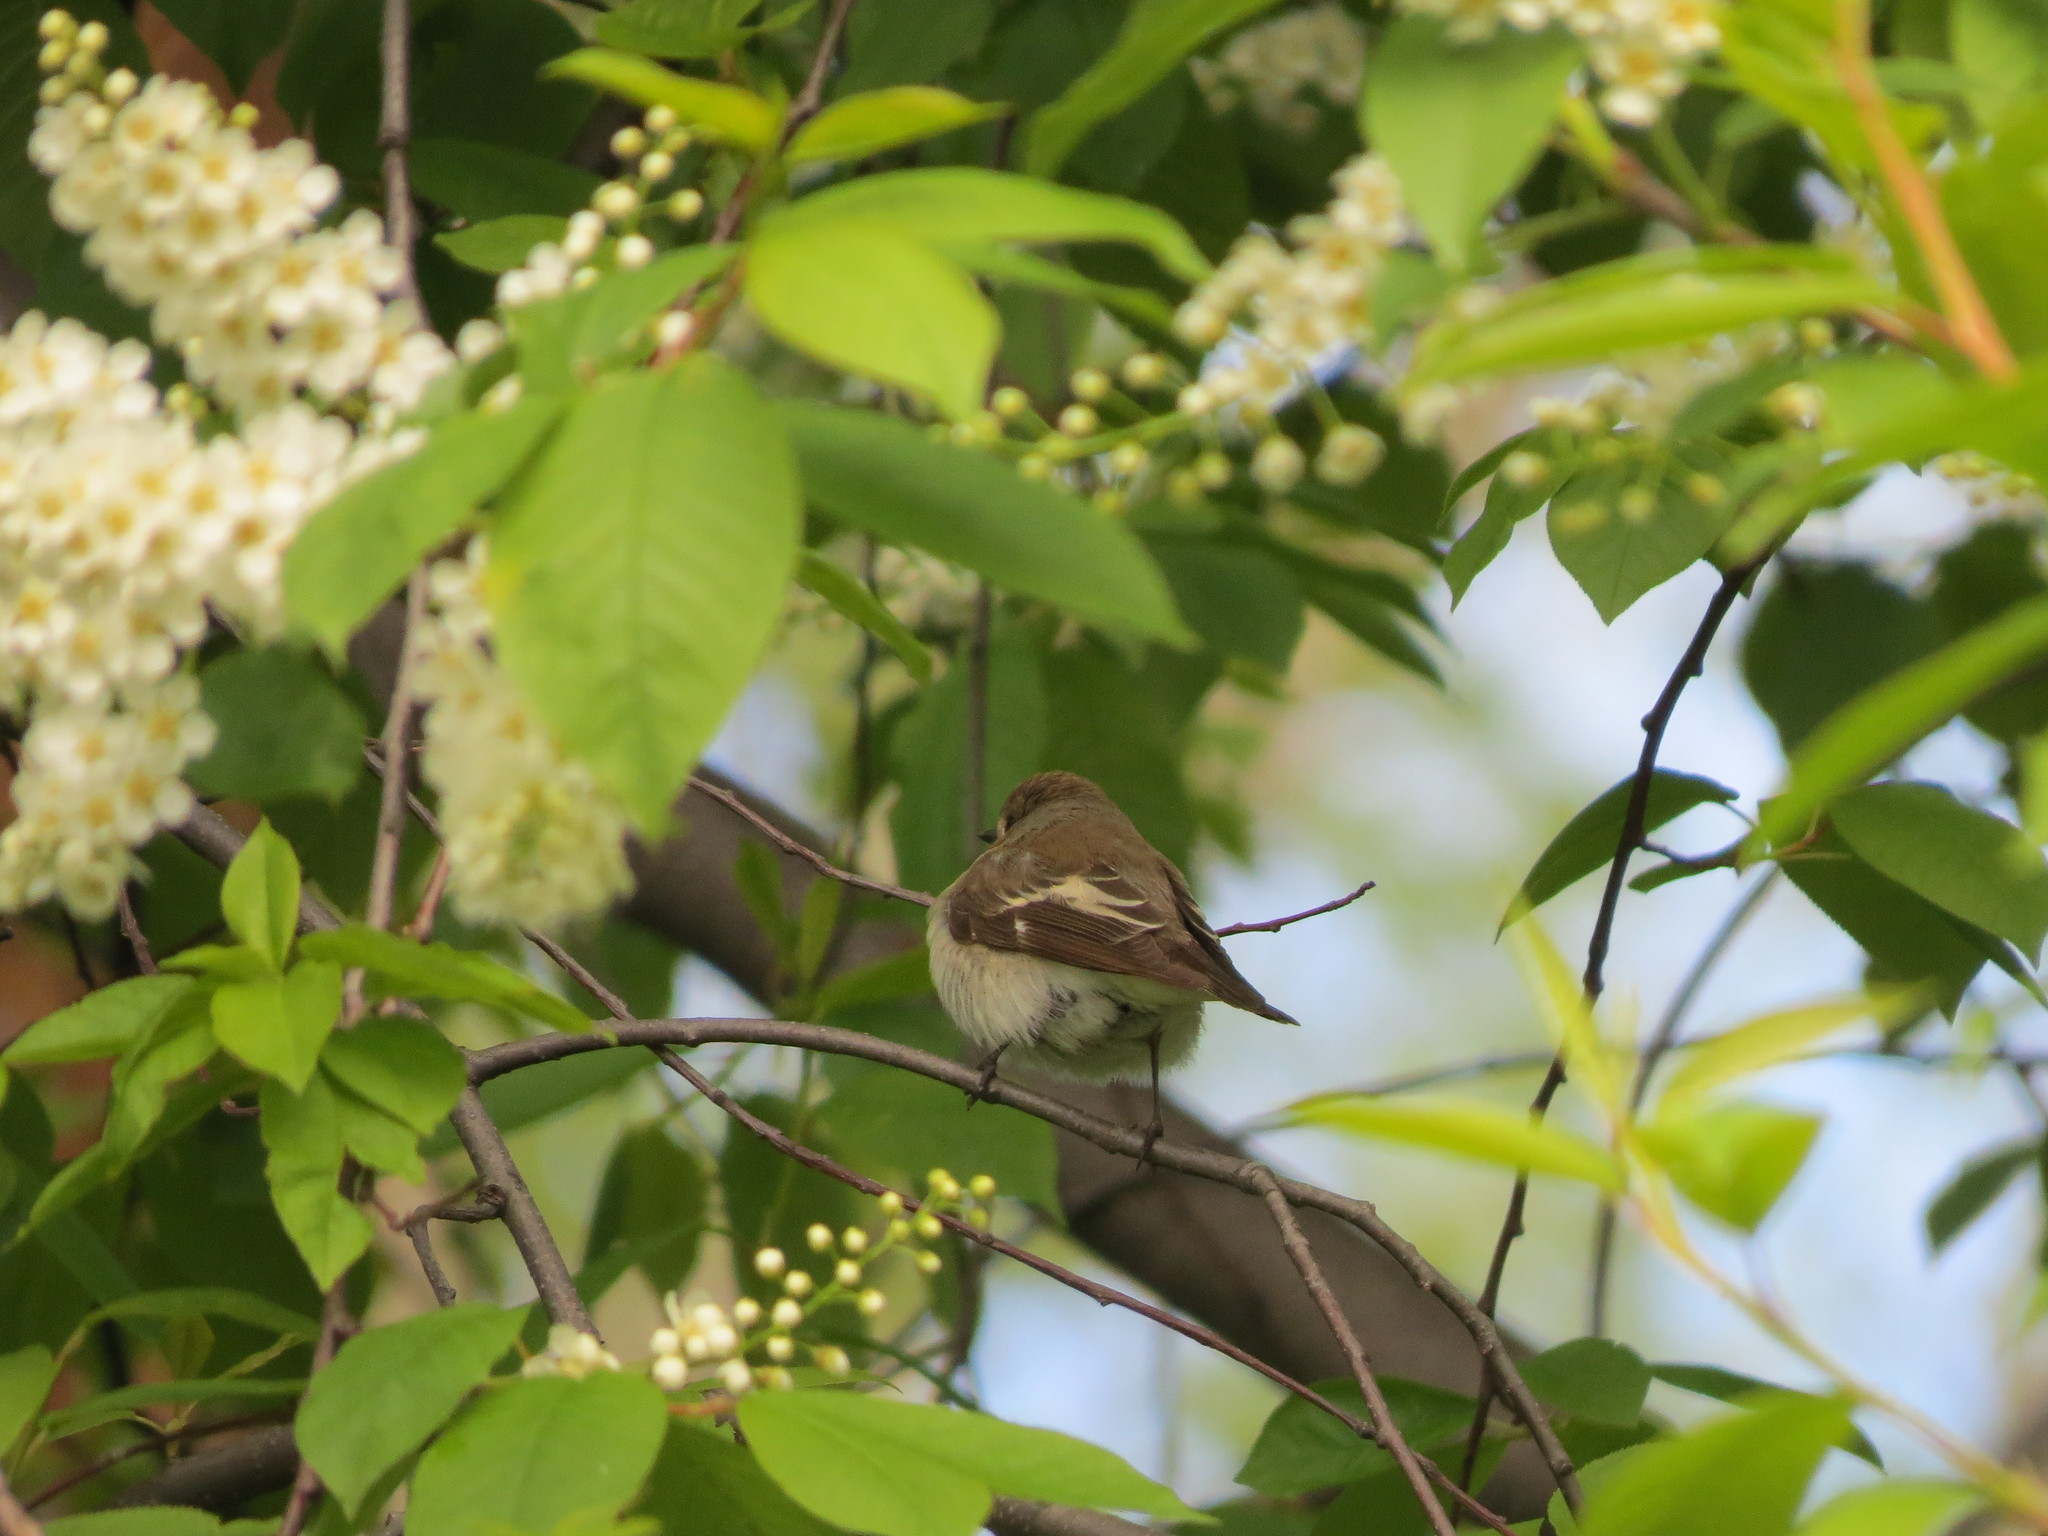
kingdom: Animalia
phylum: Chordata
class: Aves
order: Passeriformes
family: Muscicapidae
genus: Ficedula
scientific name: Ficedula hypoleuca
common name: European pied flycatcher
